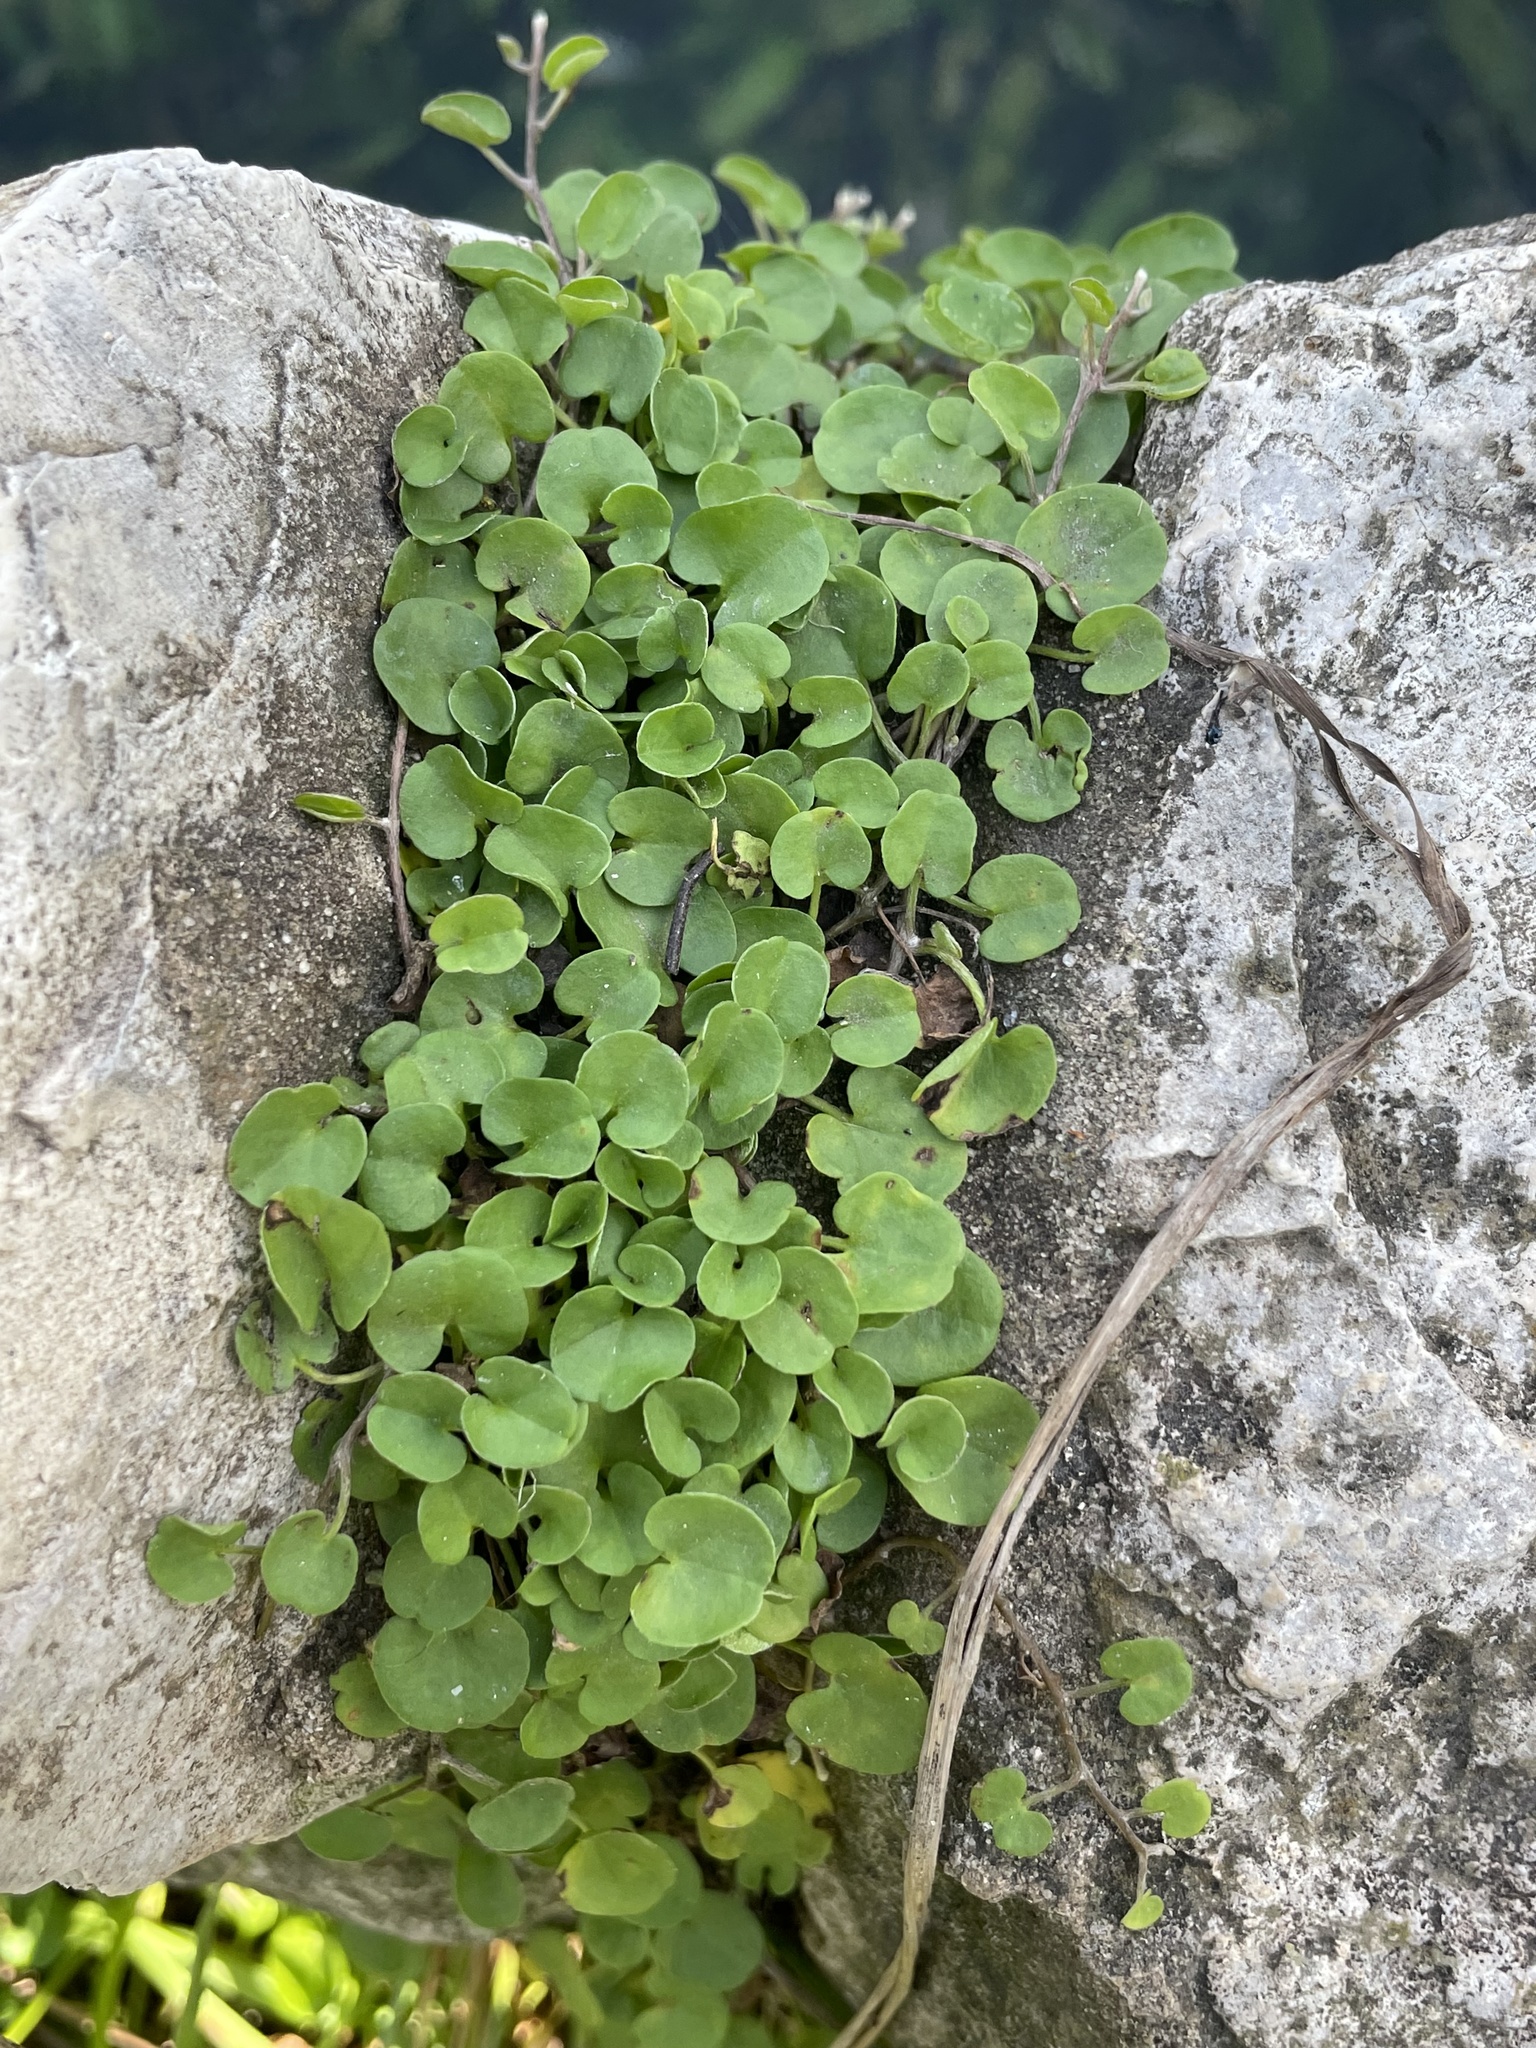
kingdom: Plantae
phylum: Tracheophyta
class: Magnoliopsida
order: Solanales
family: Convolvulaceae
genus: Dichondra
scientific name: Dichondra carolinensis
